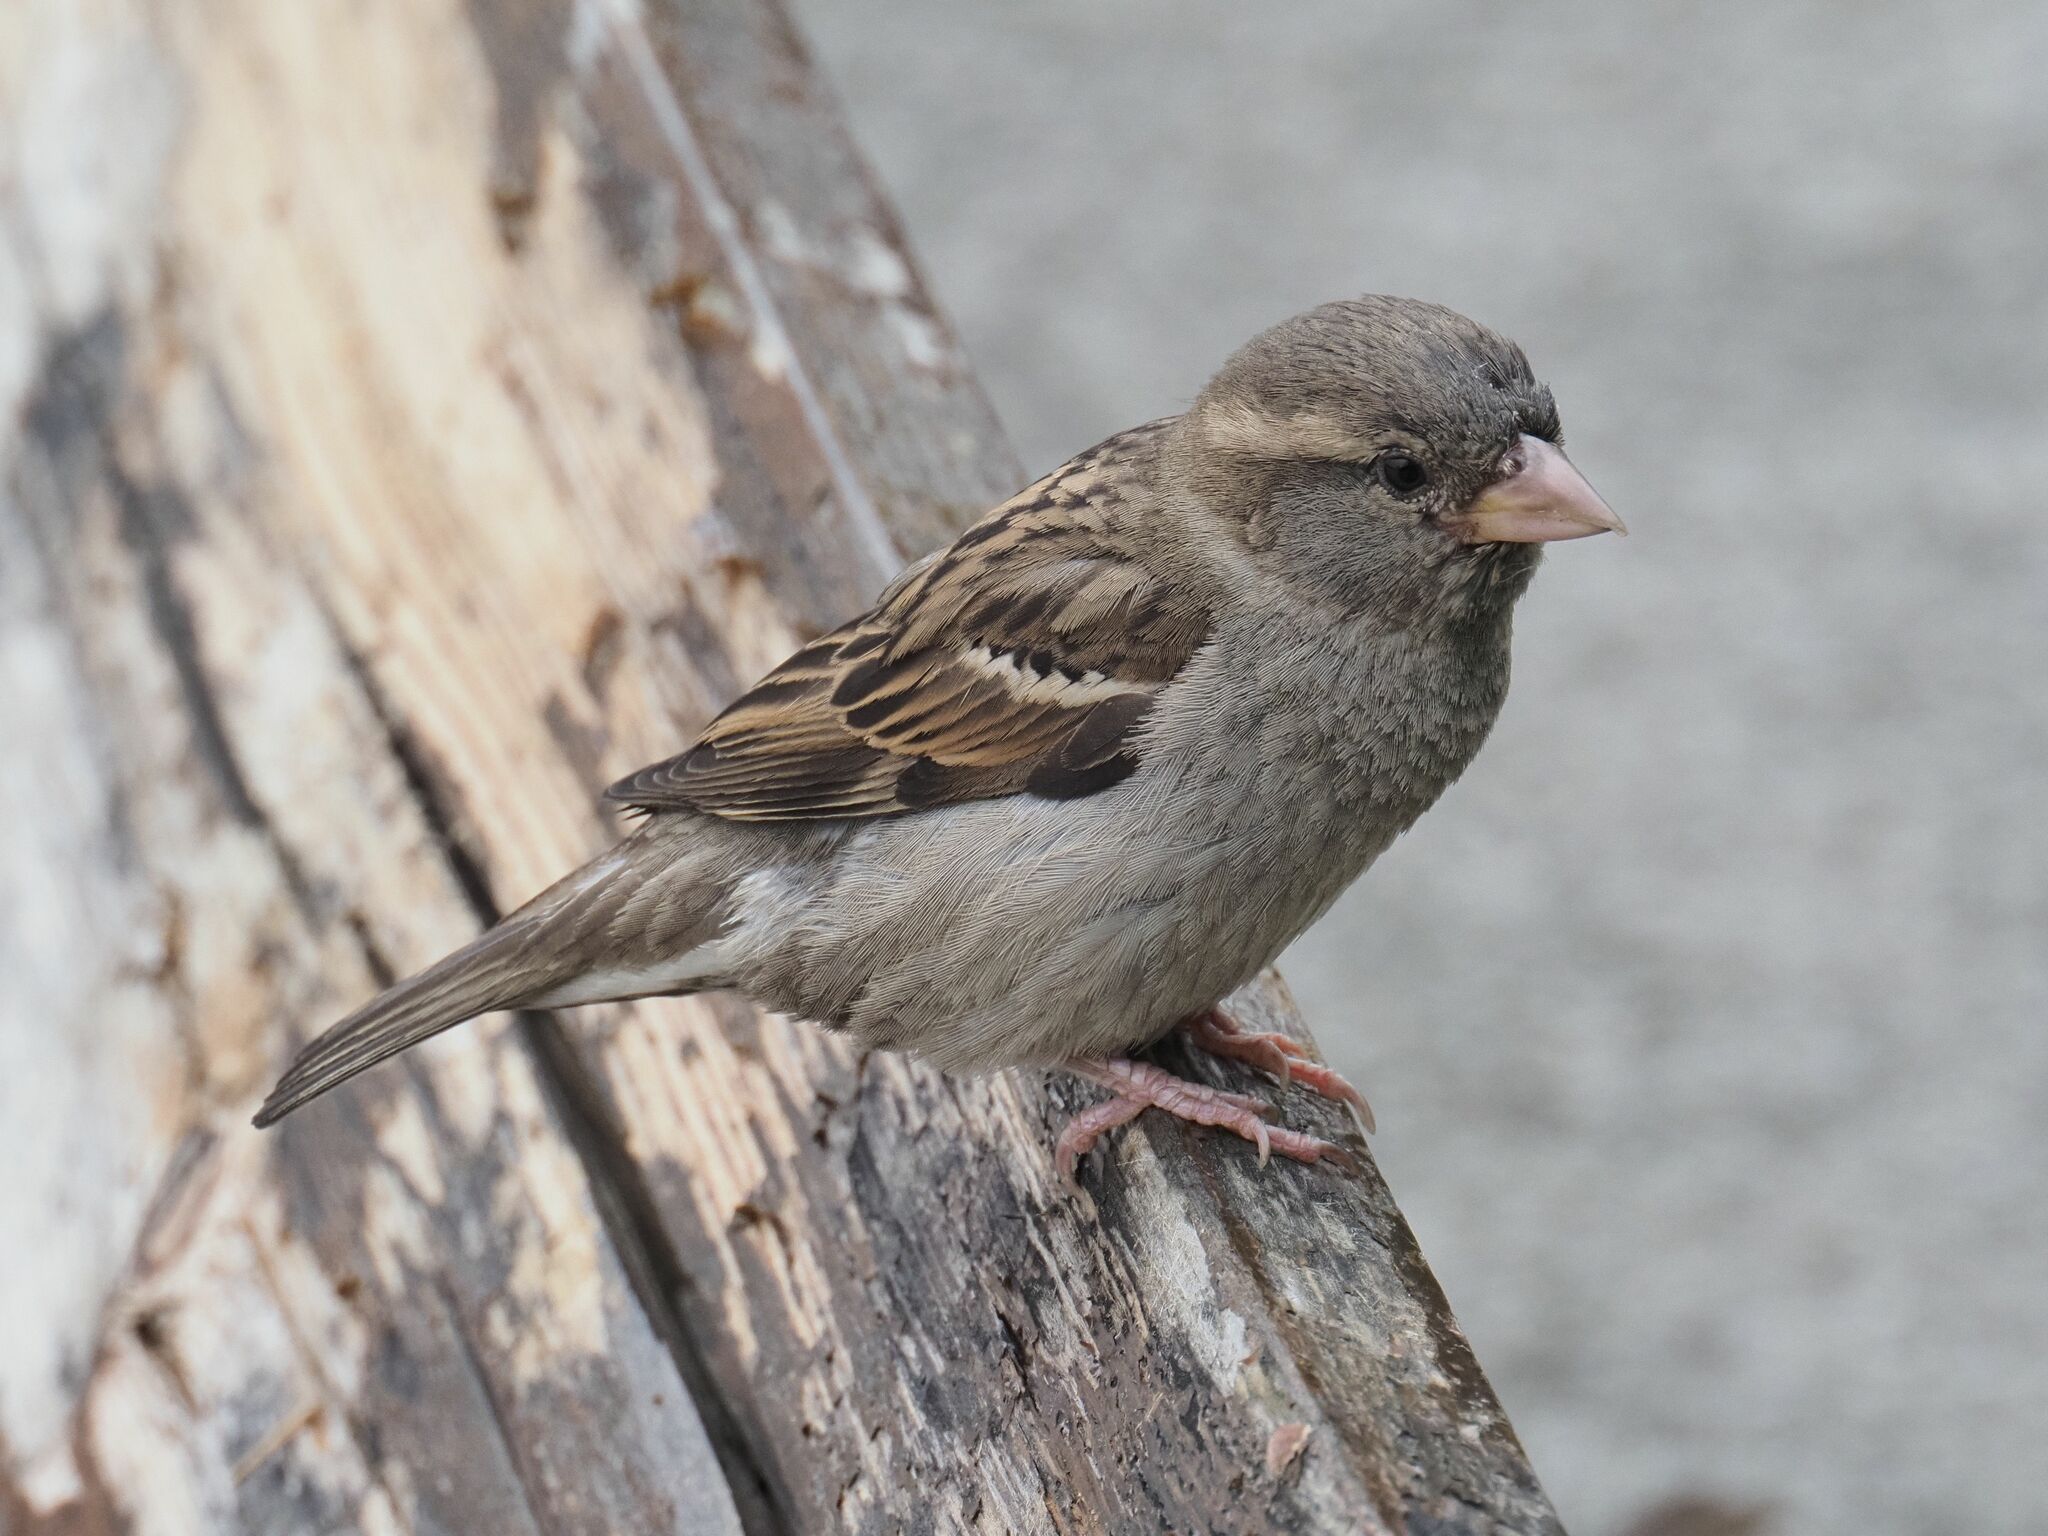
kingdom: Animalia
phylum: Chordata
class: Aves
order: Passeriformes
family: Passeridae
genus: Passer
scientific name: Passer domesticus
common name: House sparrow
